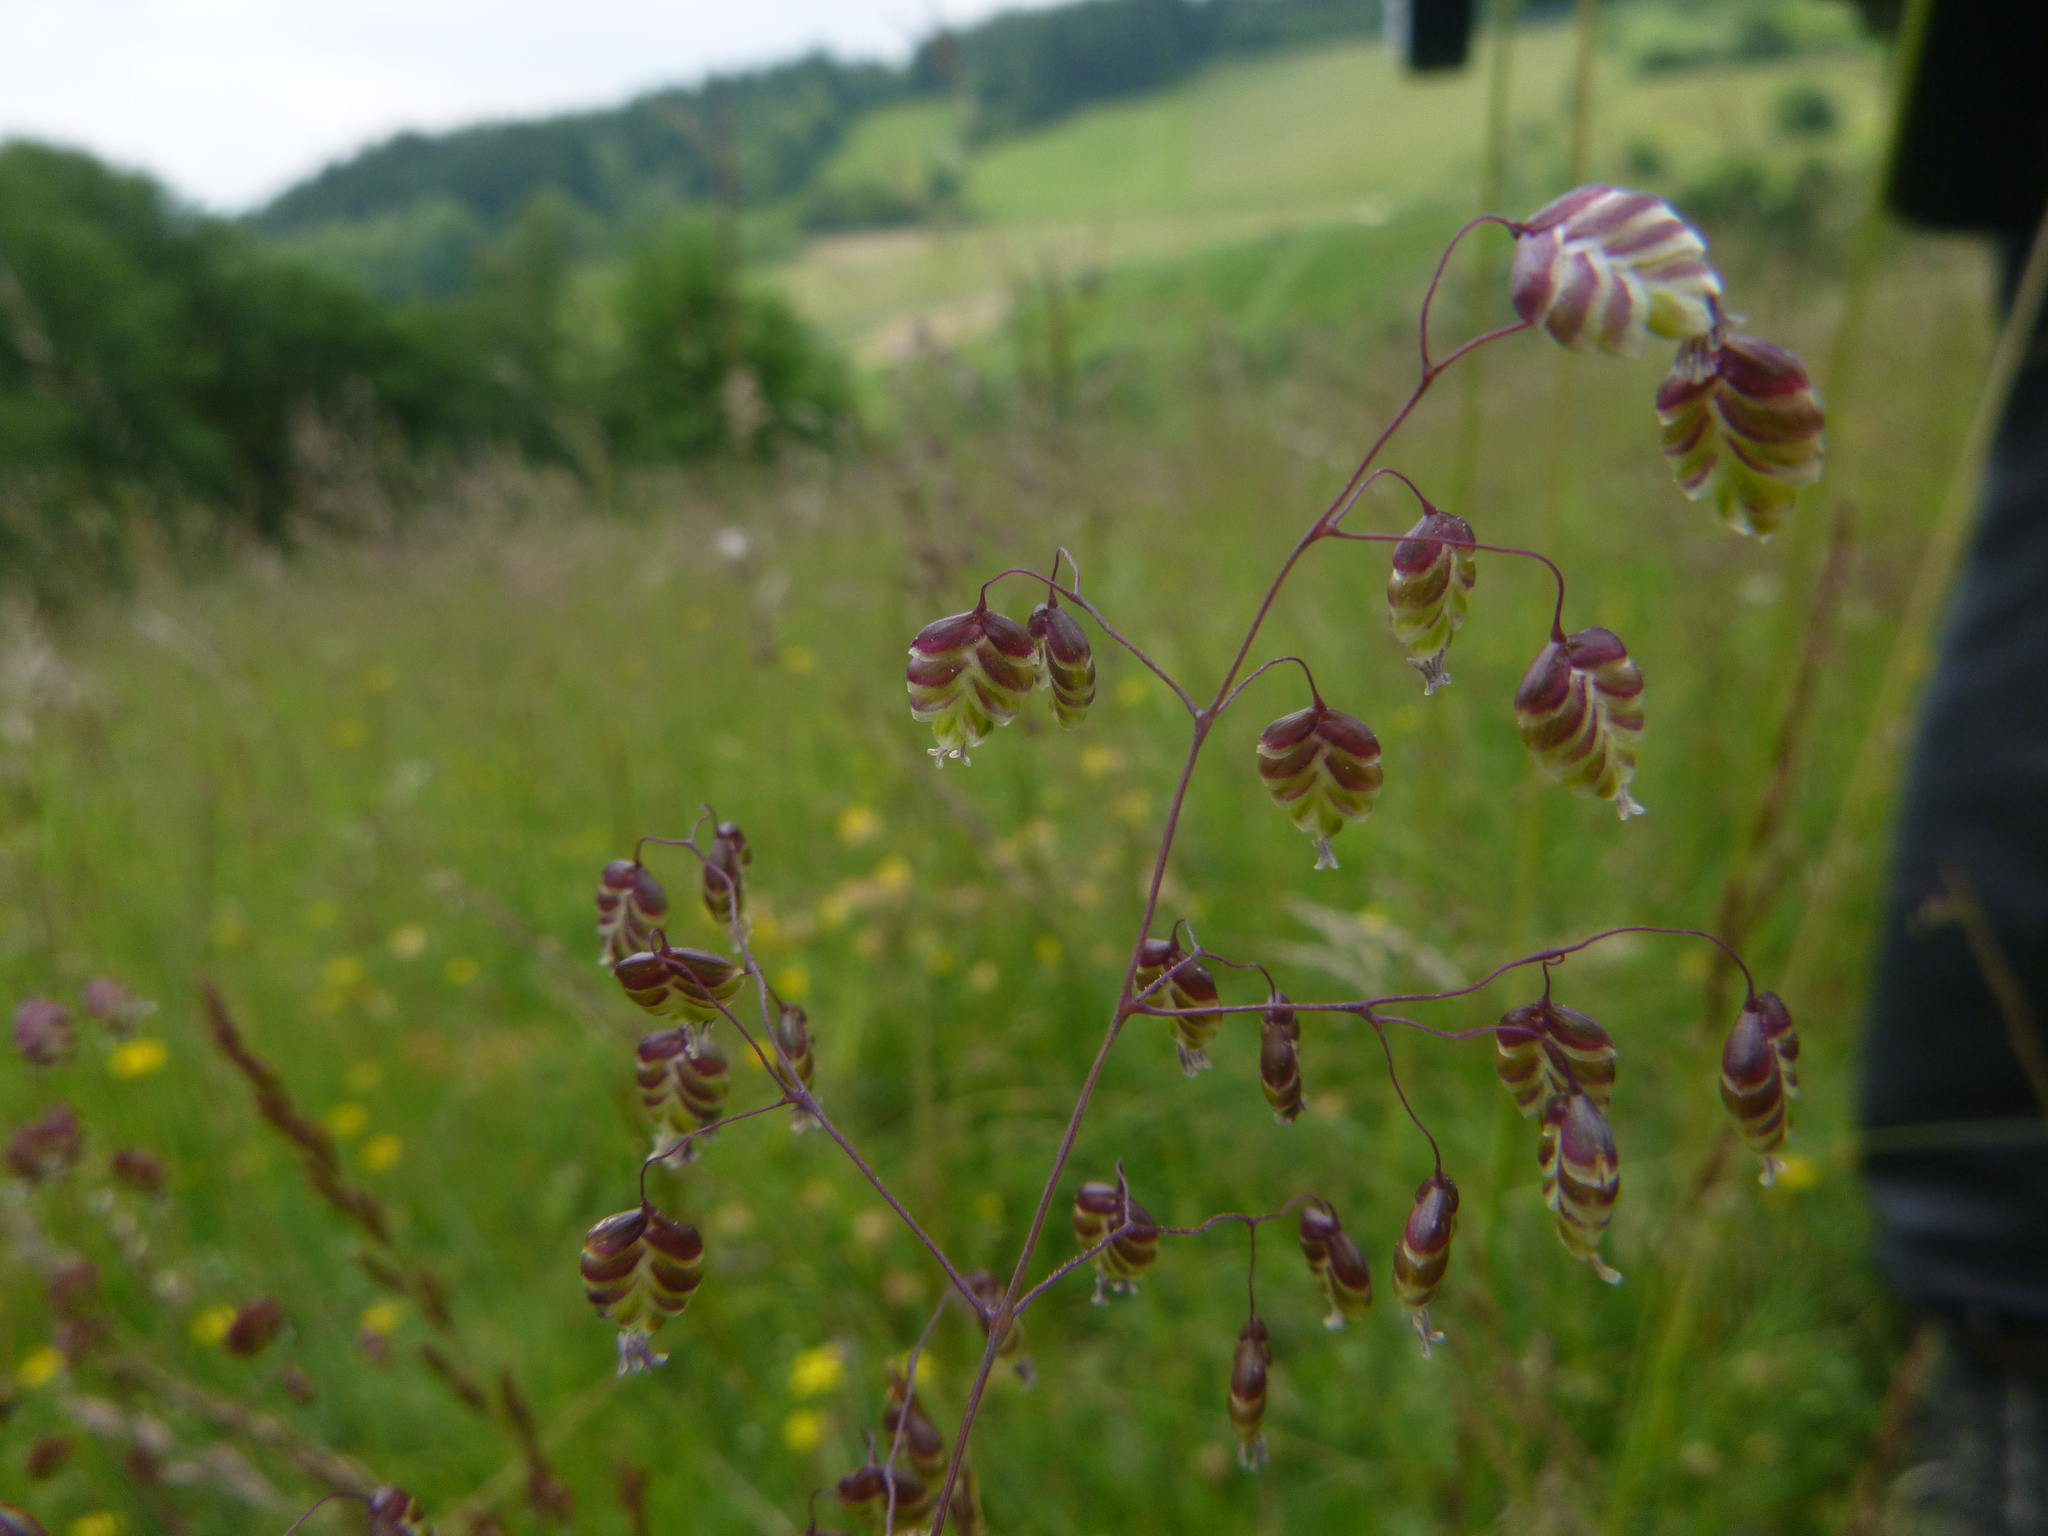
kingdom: Plantae
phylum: Tracheophyta
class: Liliopsida
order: Poales
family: Poaceae
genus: Briza
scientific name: Briza media
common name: Quaking grass
